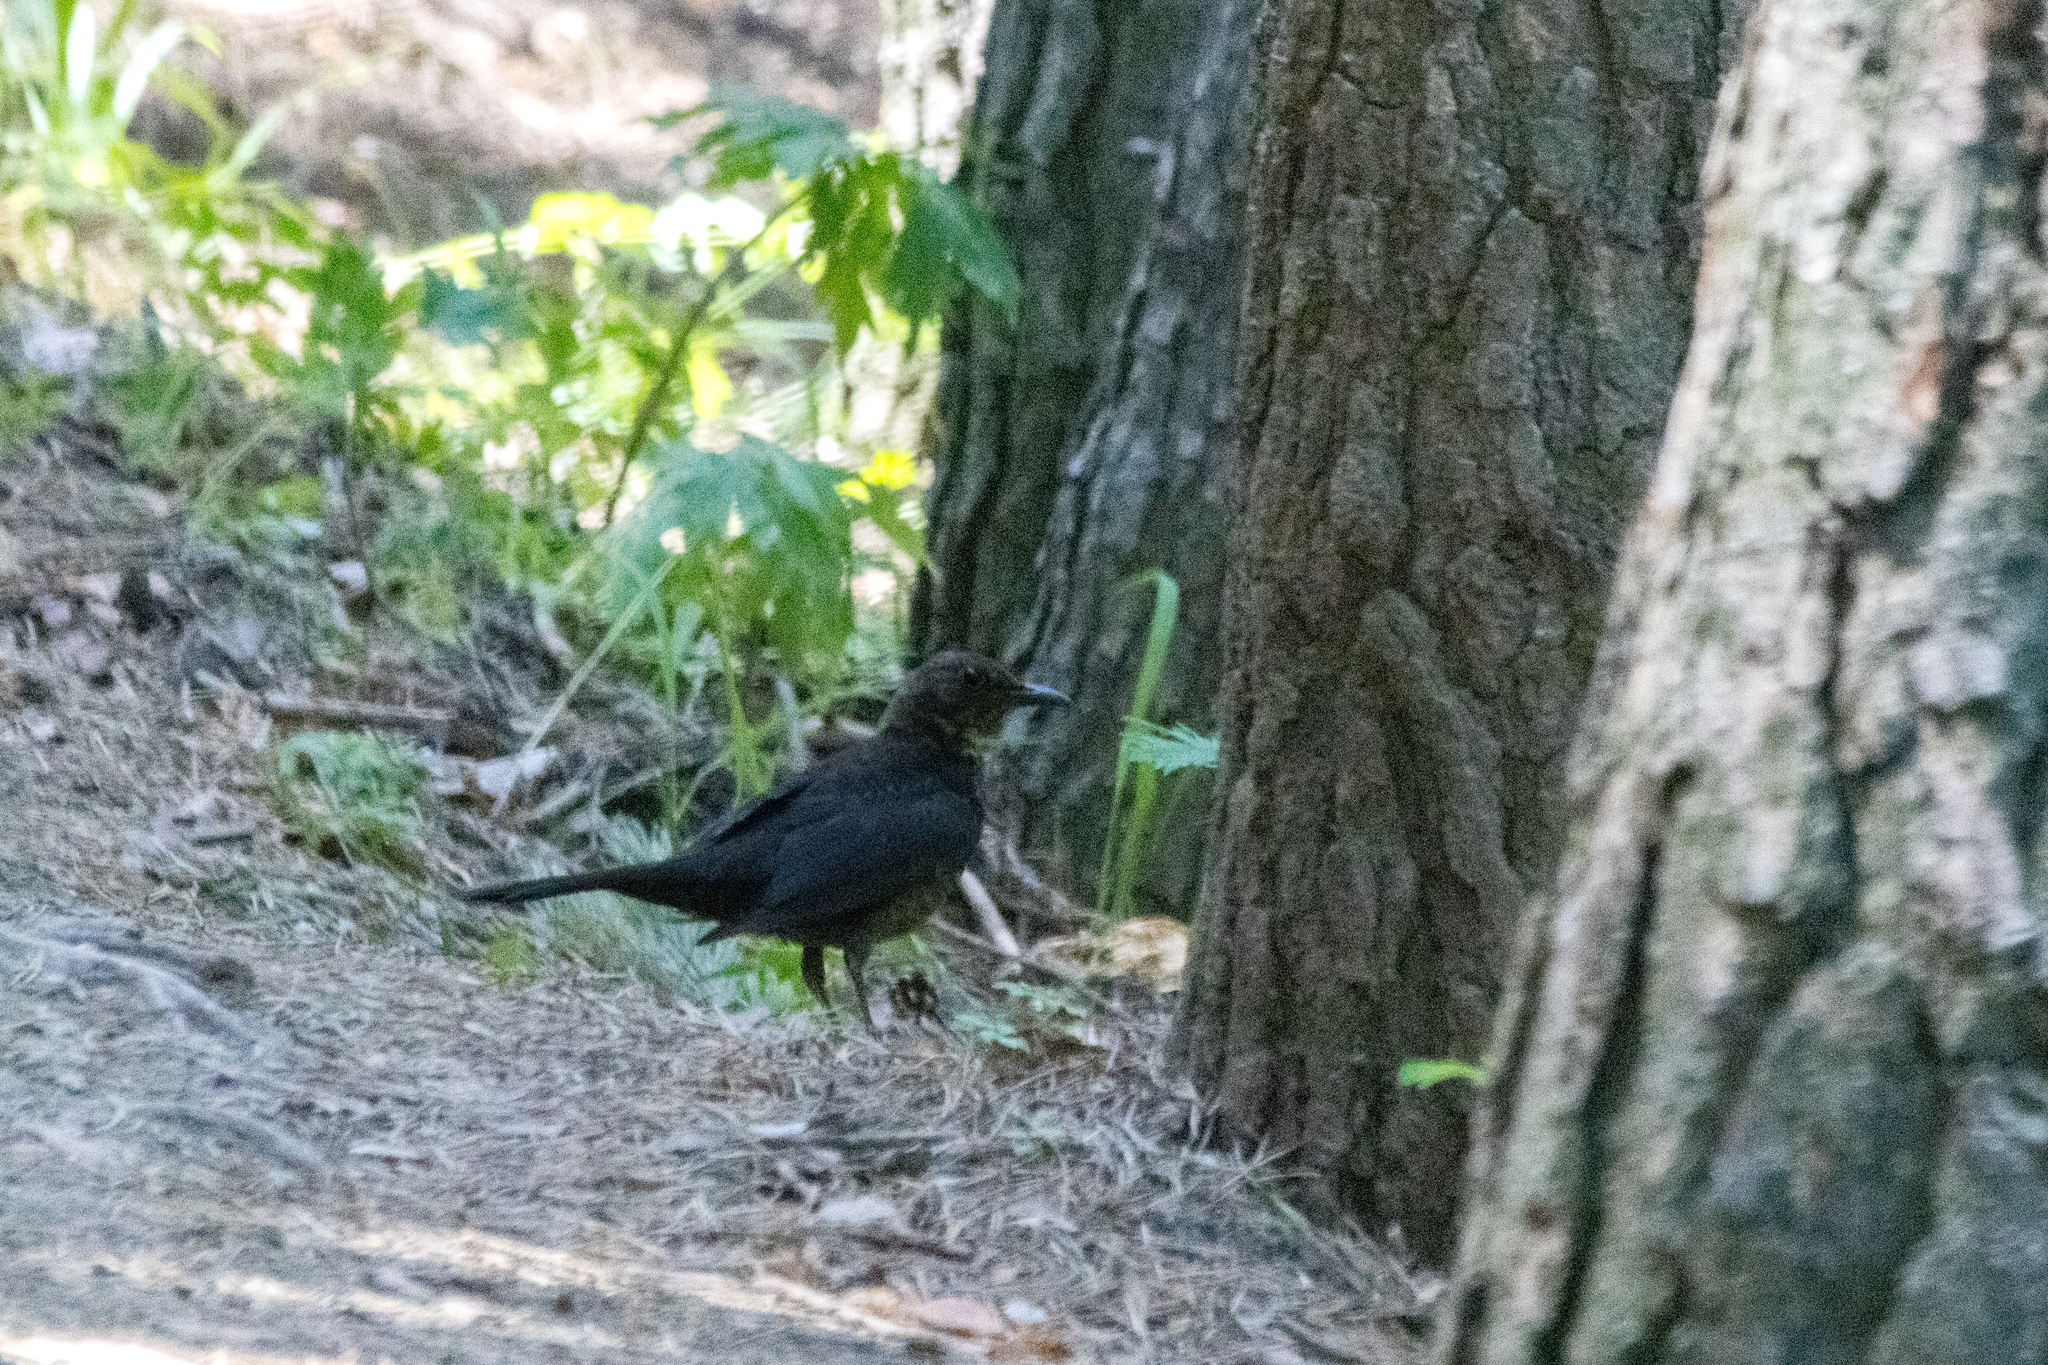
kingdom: Animalia
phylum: Chordata
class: Aves
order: Passeriformes
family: Turdidae
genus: Turdus
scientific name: Turdus merula
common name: Common blackbird
